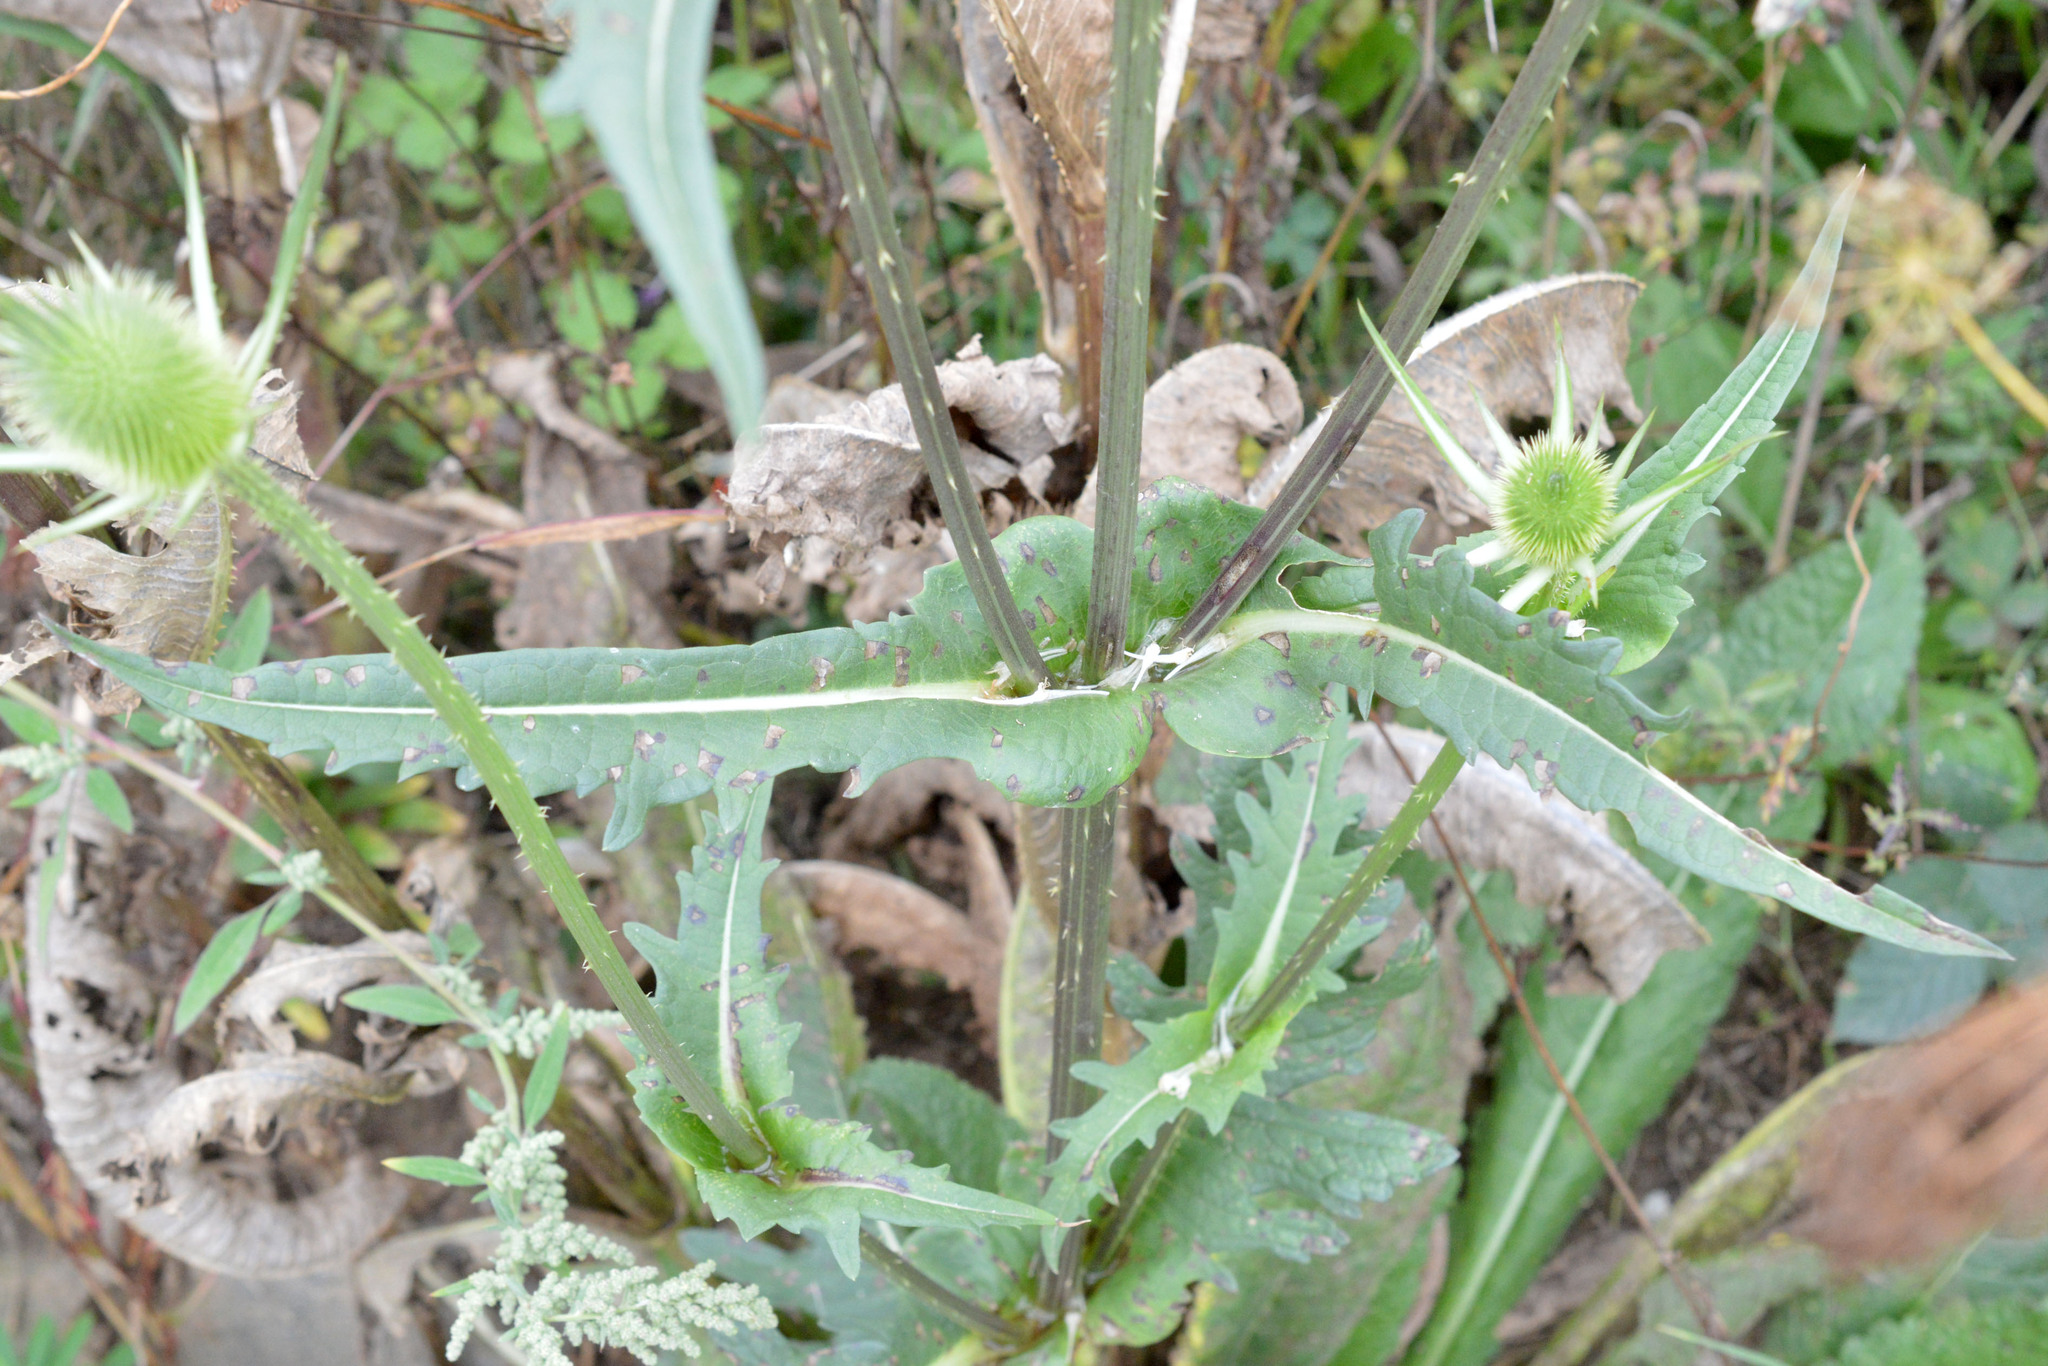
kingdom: Plantae
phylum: Tracheophyta
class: Magnoliopsida
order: Dipsacales
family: Caprifoliaceae
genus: Dipsacus
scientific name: Dipsacus laciniatus
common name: Cut-leaved teasel
